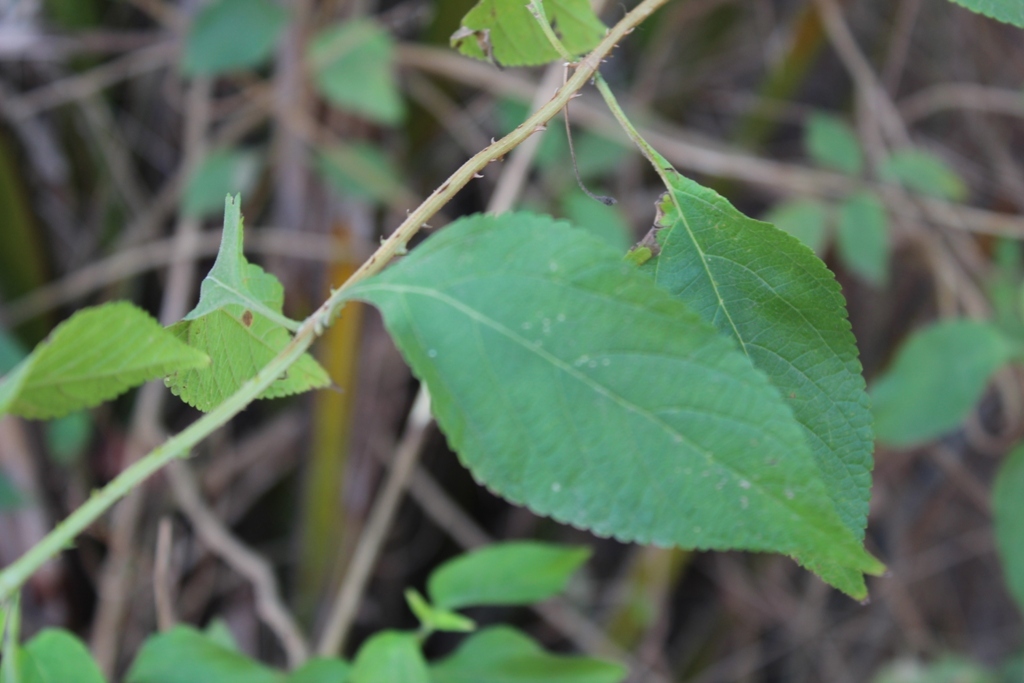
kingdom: Plantae
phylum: Tracheophyta
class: Magnoliopsida
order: Lamiales
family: Verbenaceae
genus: Lantana
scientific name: Lantana camara
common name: Lantana
